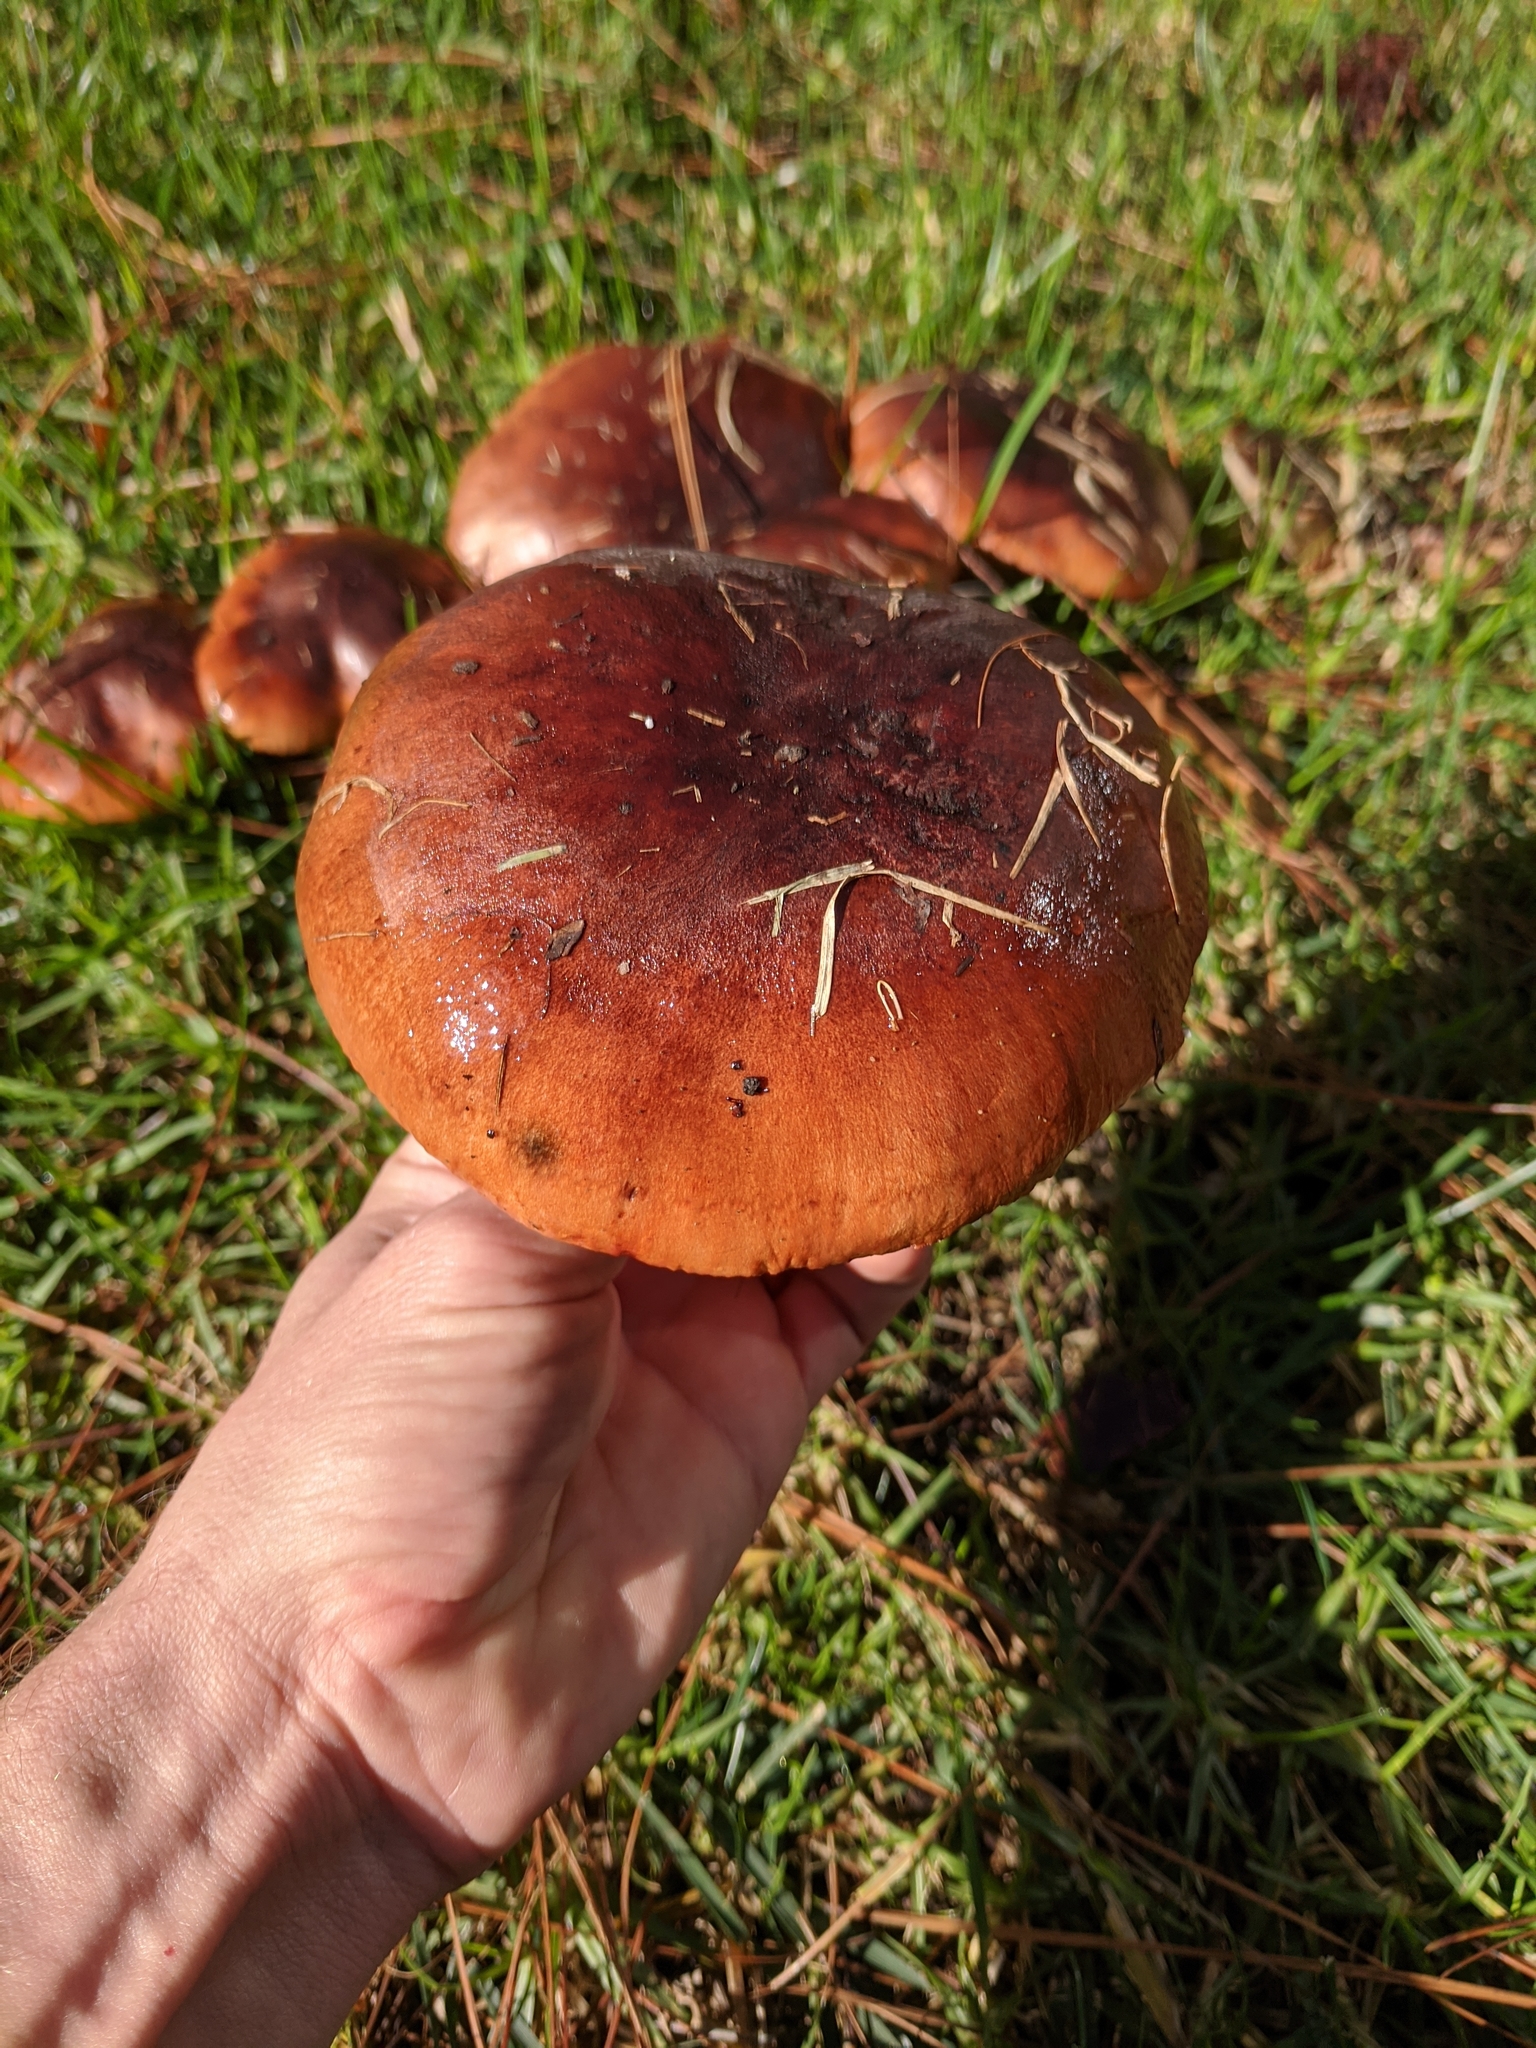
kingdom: Fungi
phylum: Basidiomycota
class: Agaricomycetes
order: Agaricales
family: Tricholomataceae
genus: Tricholoma
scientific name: Tricholoma fracticum
